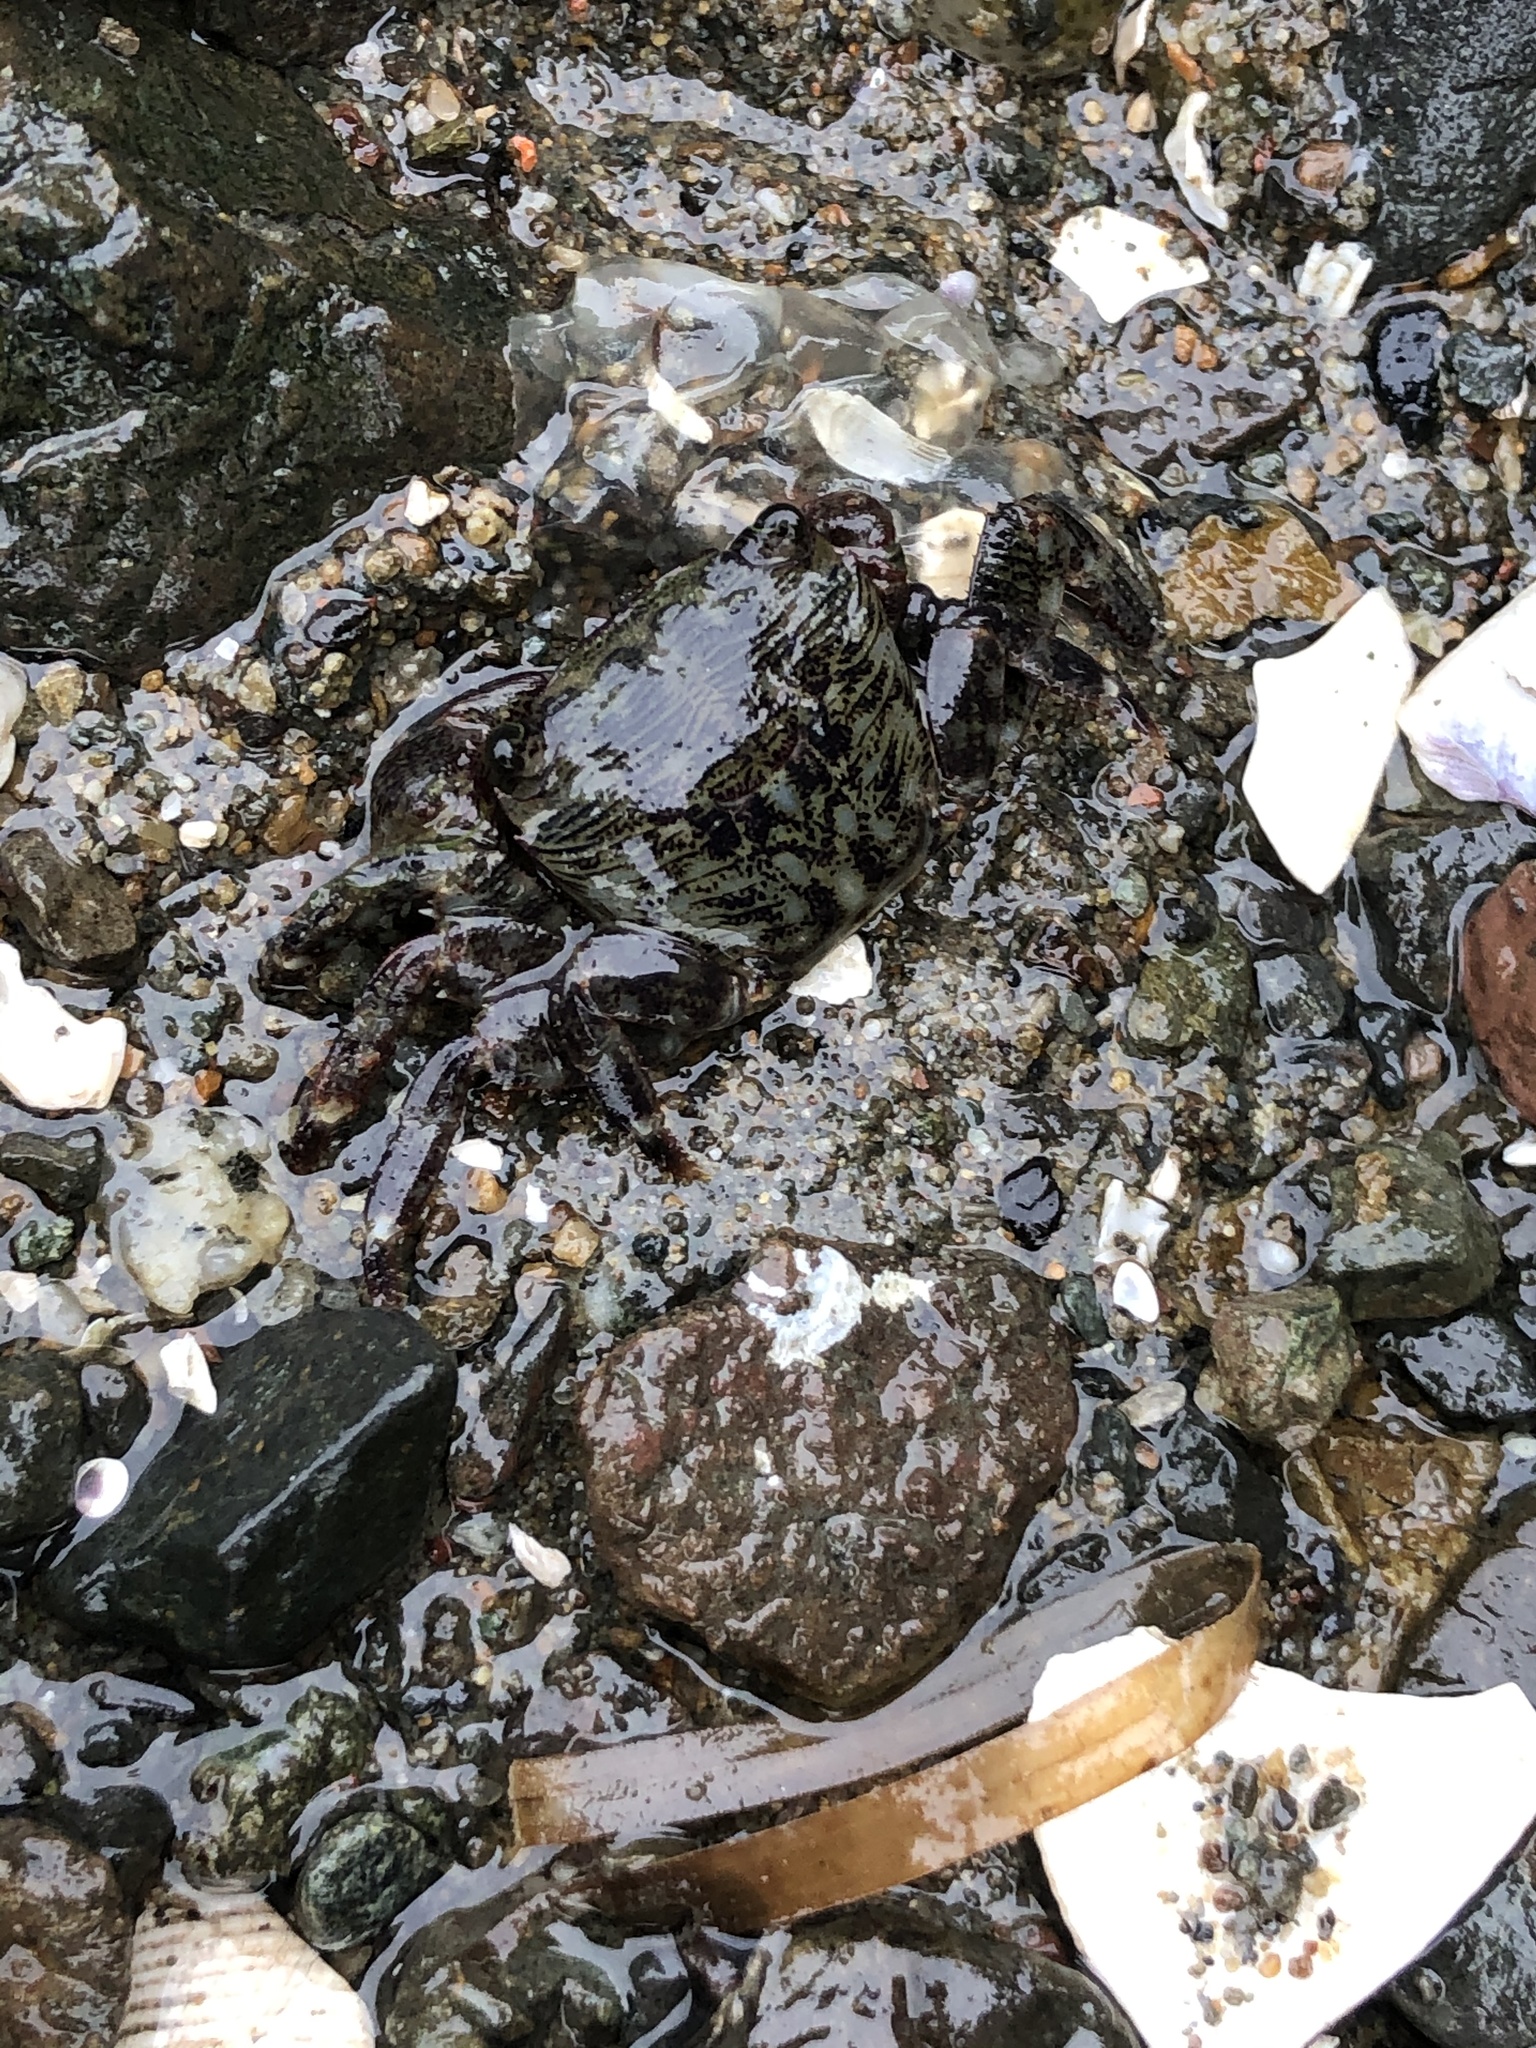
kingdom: Animalia
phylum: Arthropoda
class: Malacostraca
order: Decapoda
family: Grapsidae
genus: Pachygrapsus
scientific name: Pachygrapsus crassipes
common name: Striped shore crab
